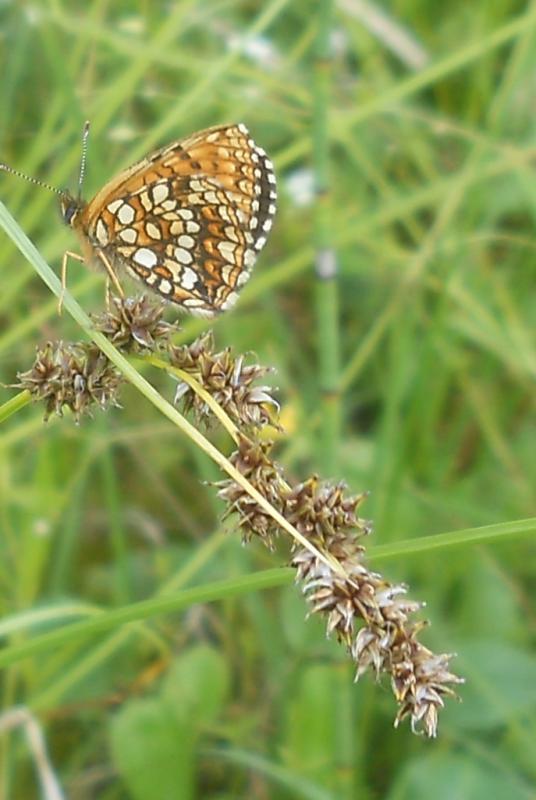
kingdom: Animalia
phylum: Arthropoda
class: Insecta
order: Lepidoptera
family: Nymphalidae
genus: Melitaea
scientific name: Melitaea diamina
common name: False heath fritillary
